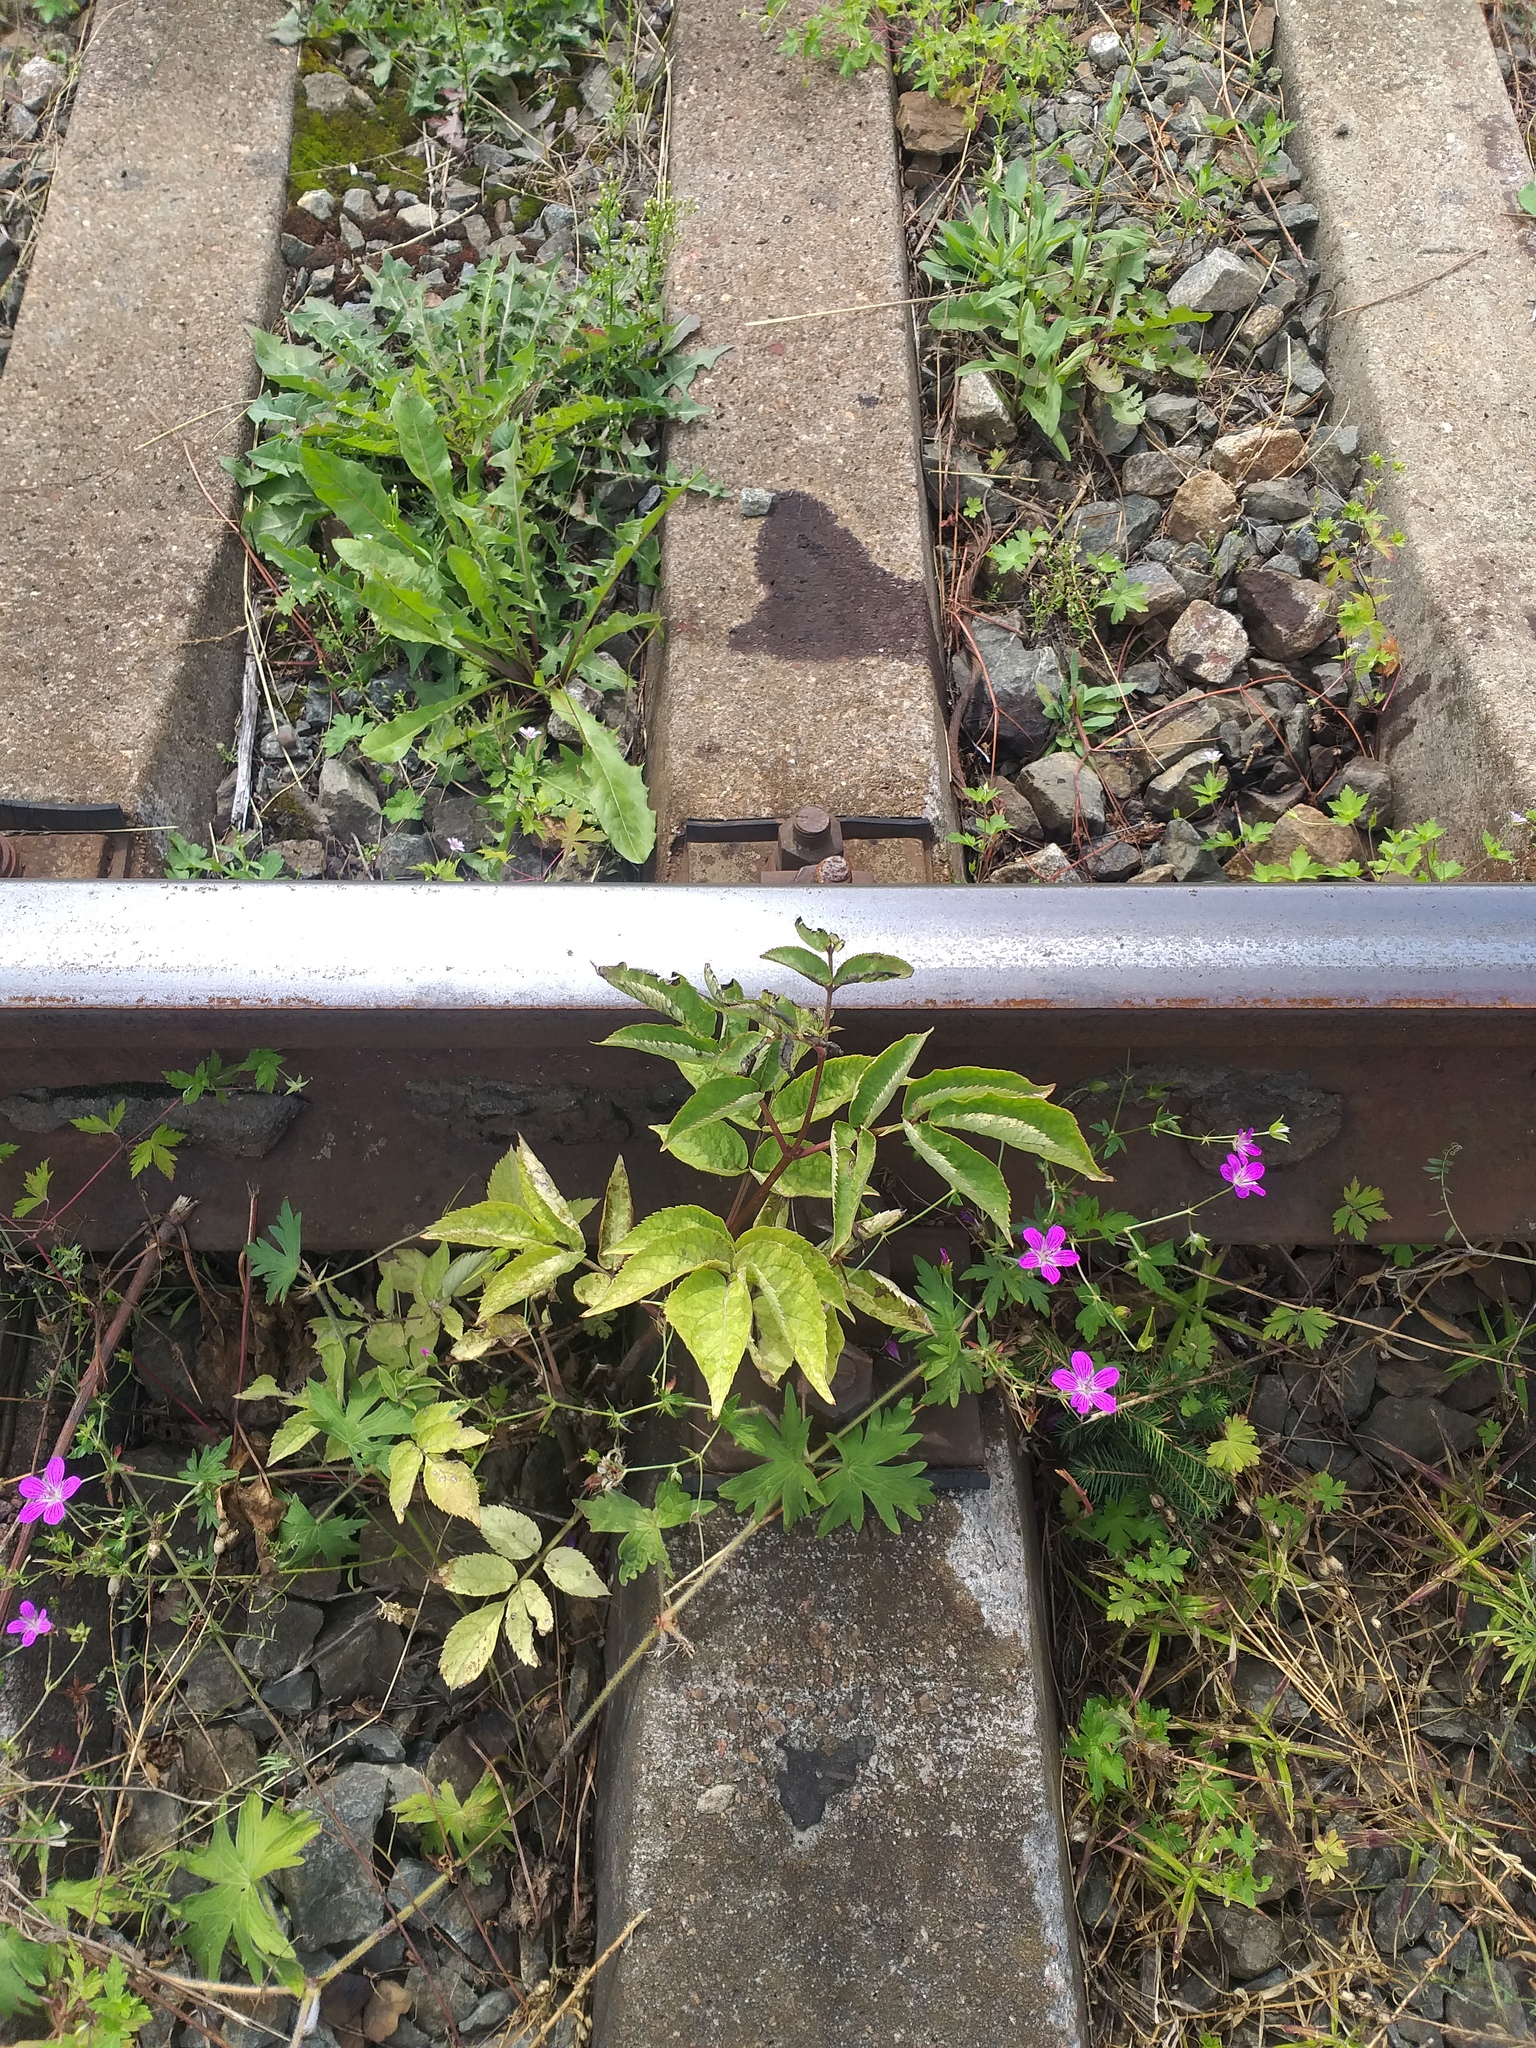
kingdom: Plantae
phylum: Tracheophyta
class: Magnoliopsida
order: Dipsacales
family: Viburnaceae
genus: Sambucus
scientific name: Sambucus racemosa
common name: Red-berried elder
